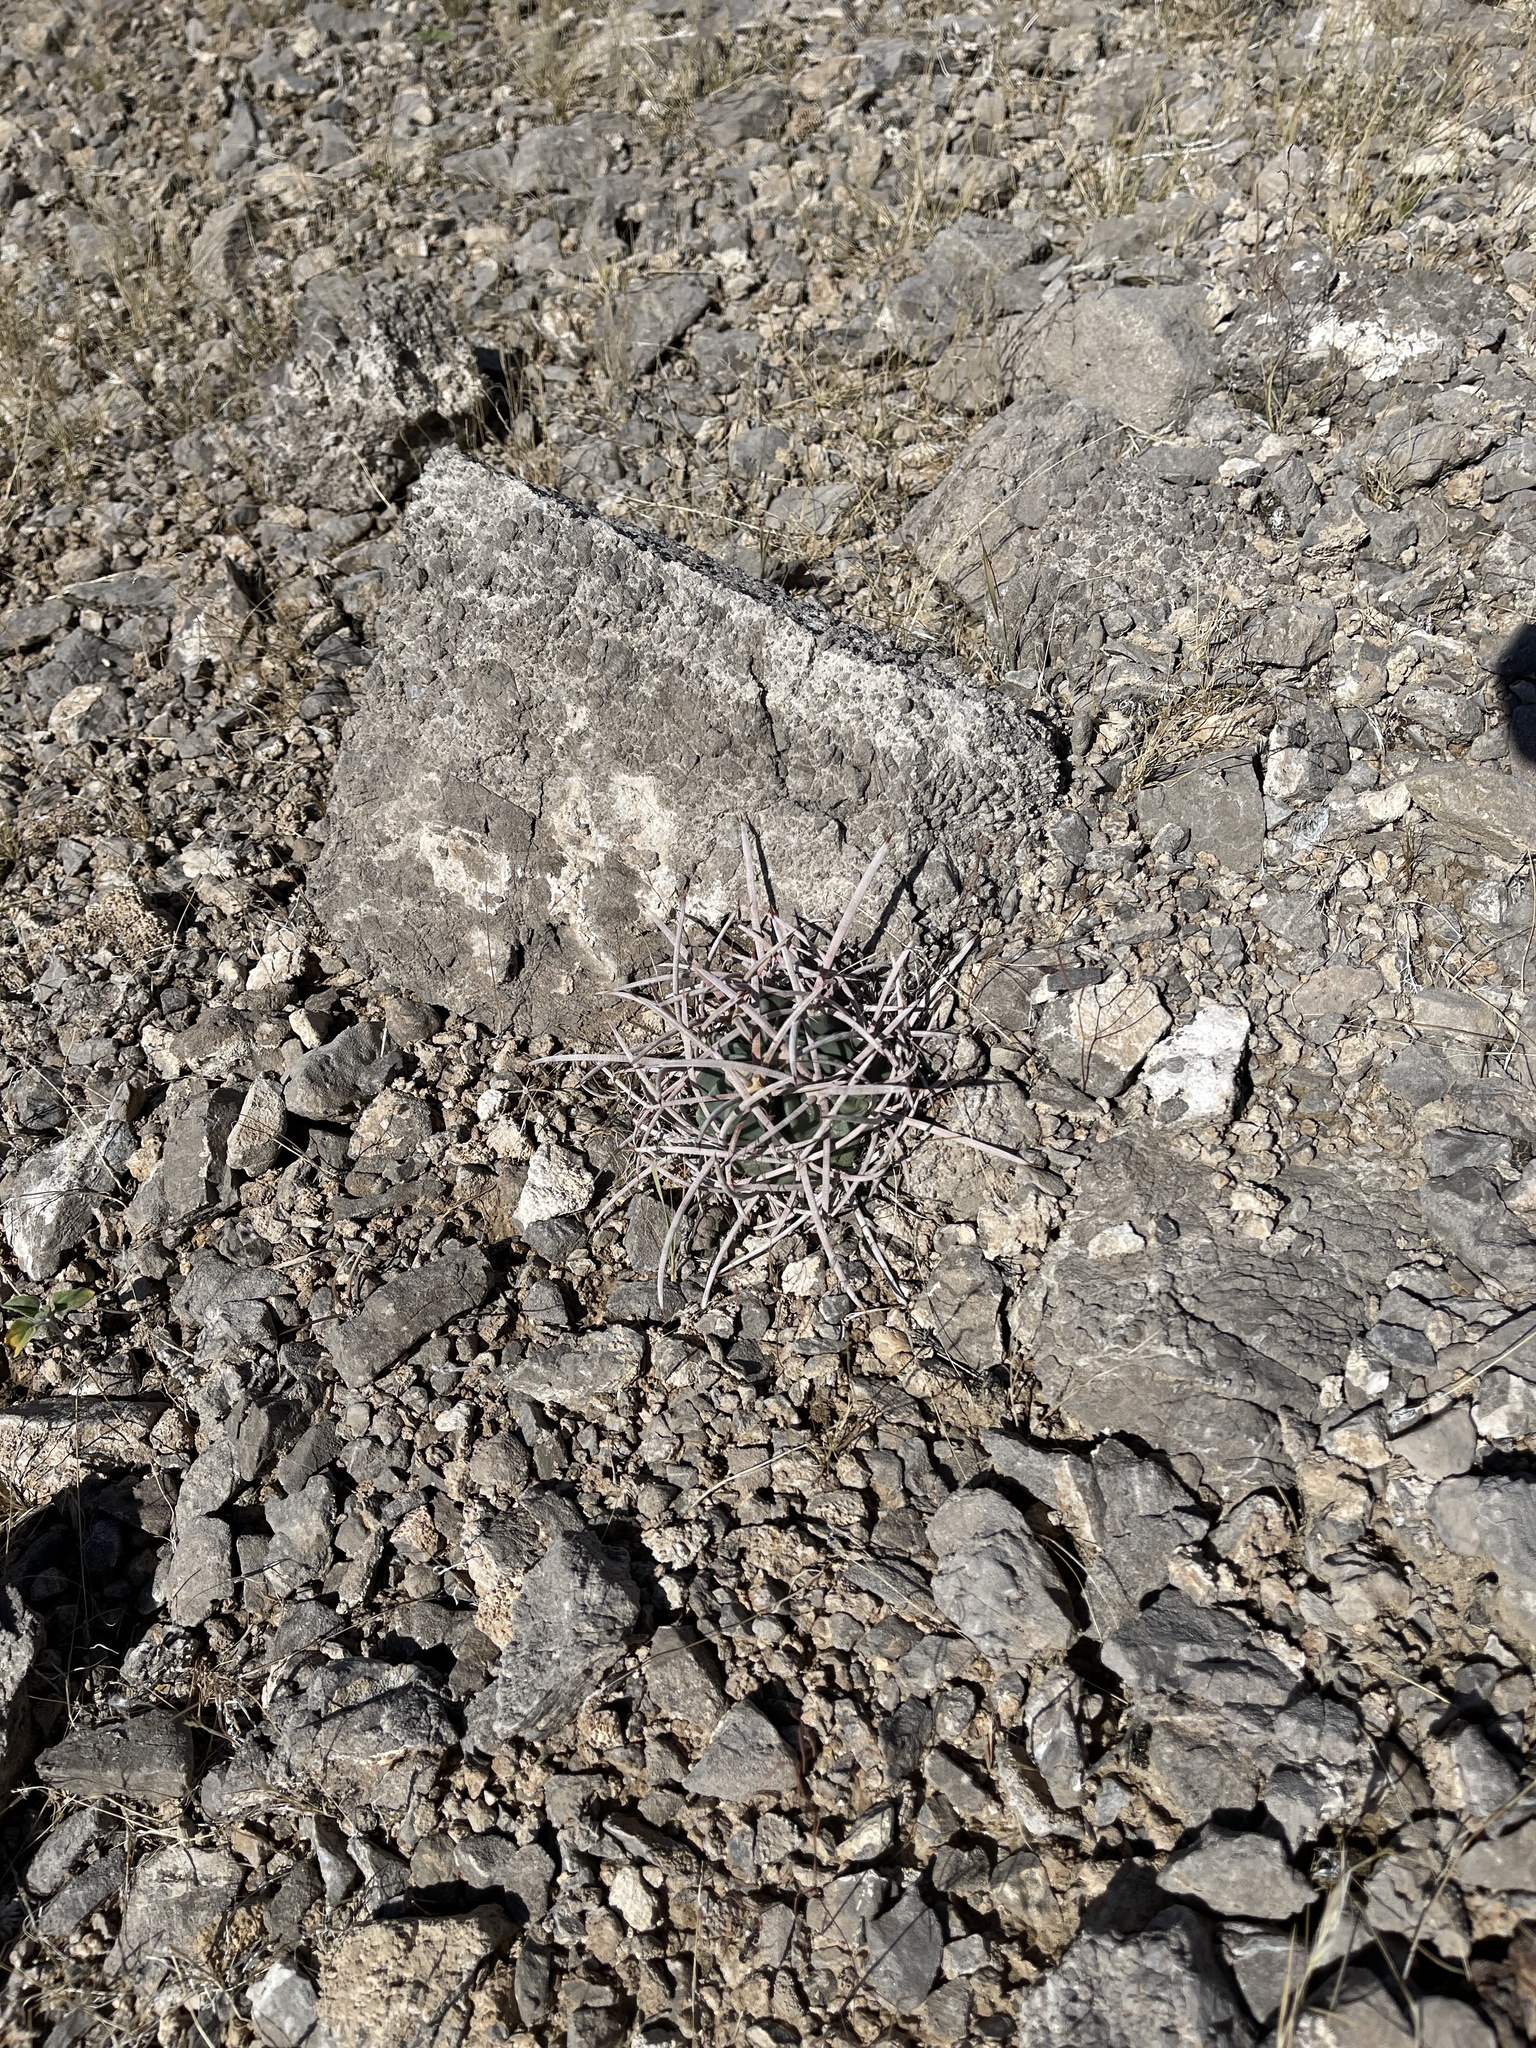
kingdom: Plantae
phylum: Tracheophyta
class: Magnoliopsida
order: Caryophyllales
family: Cactaceae
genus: Echinocactus
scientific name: Echinocactus polycephalus
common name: Cottontop cactus
